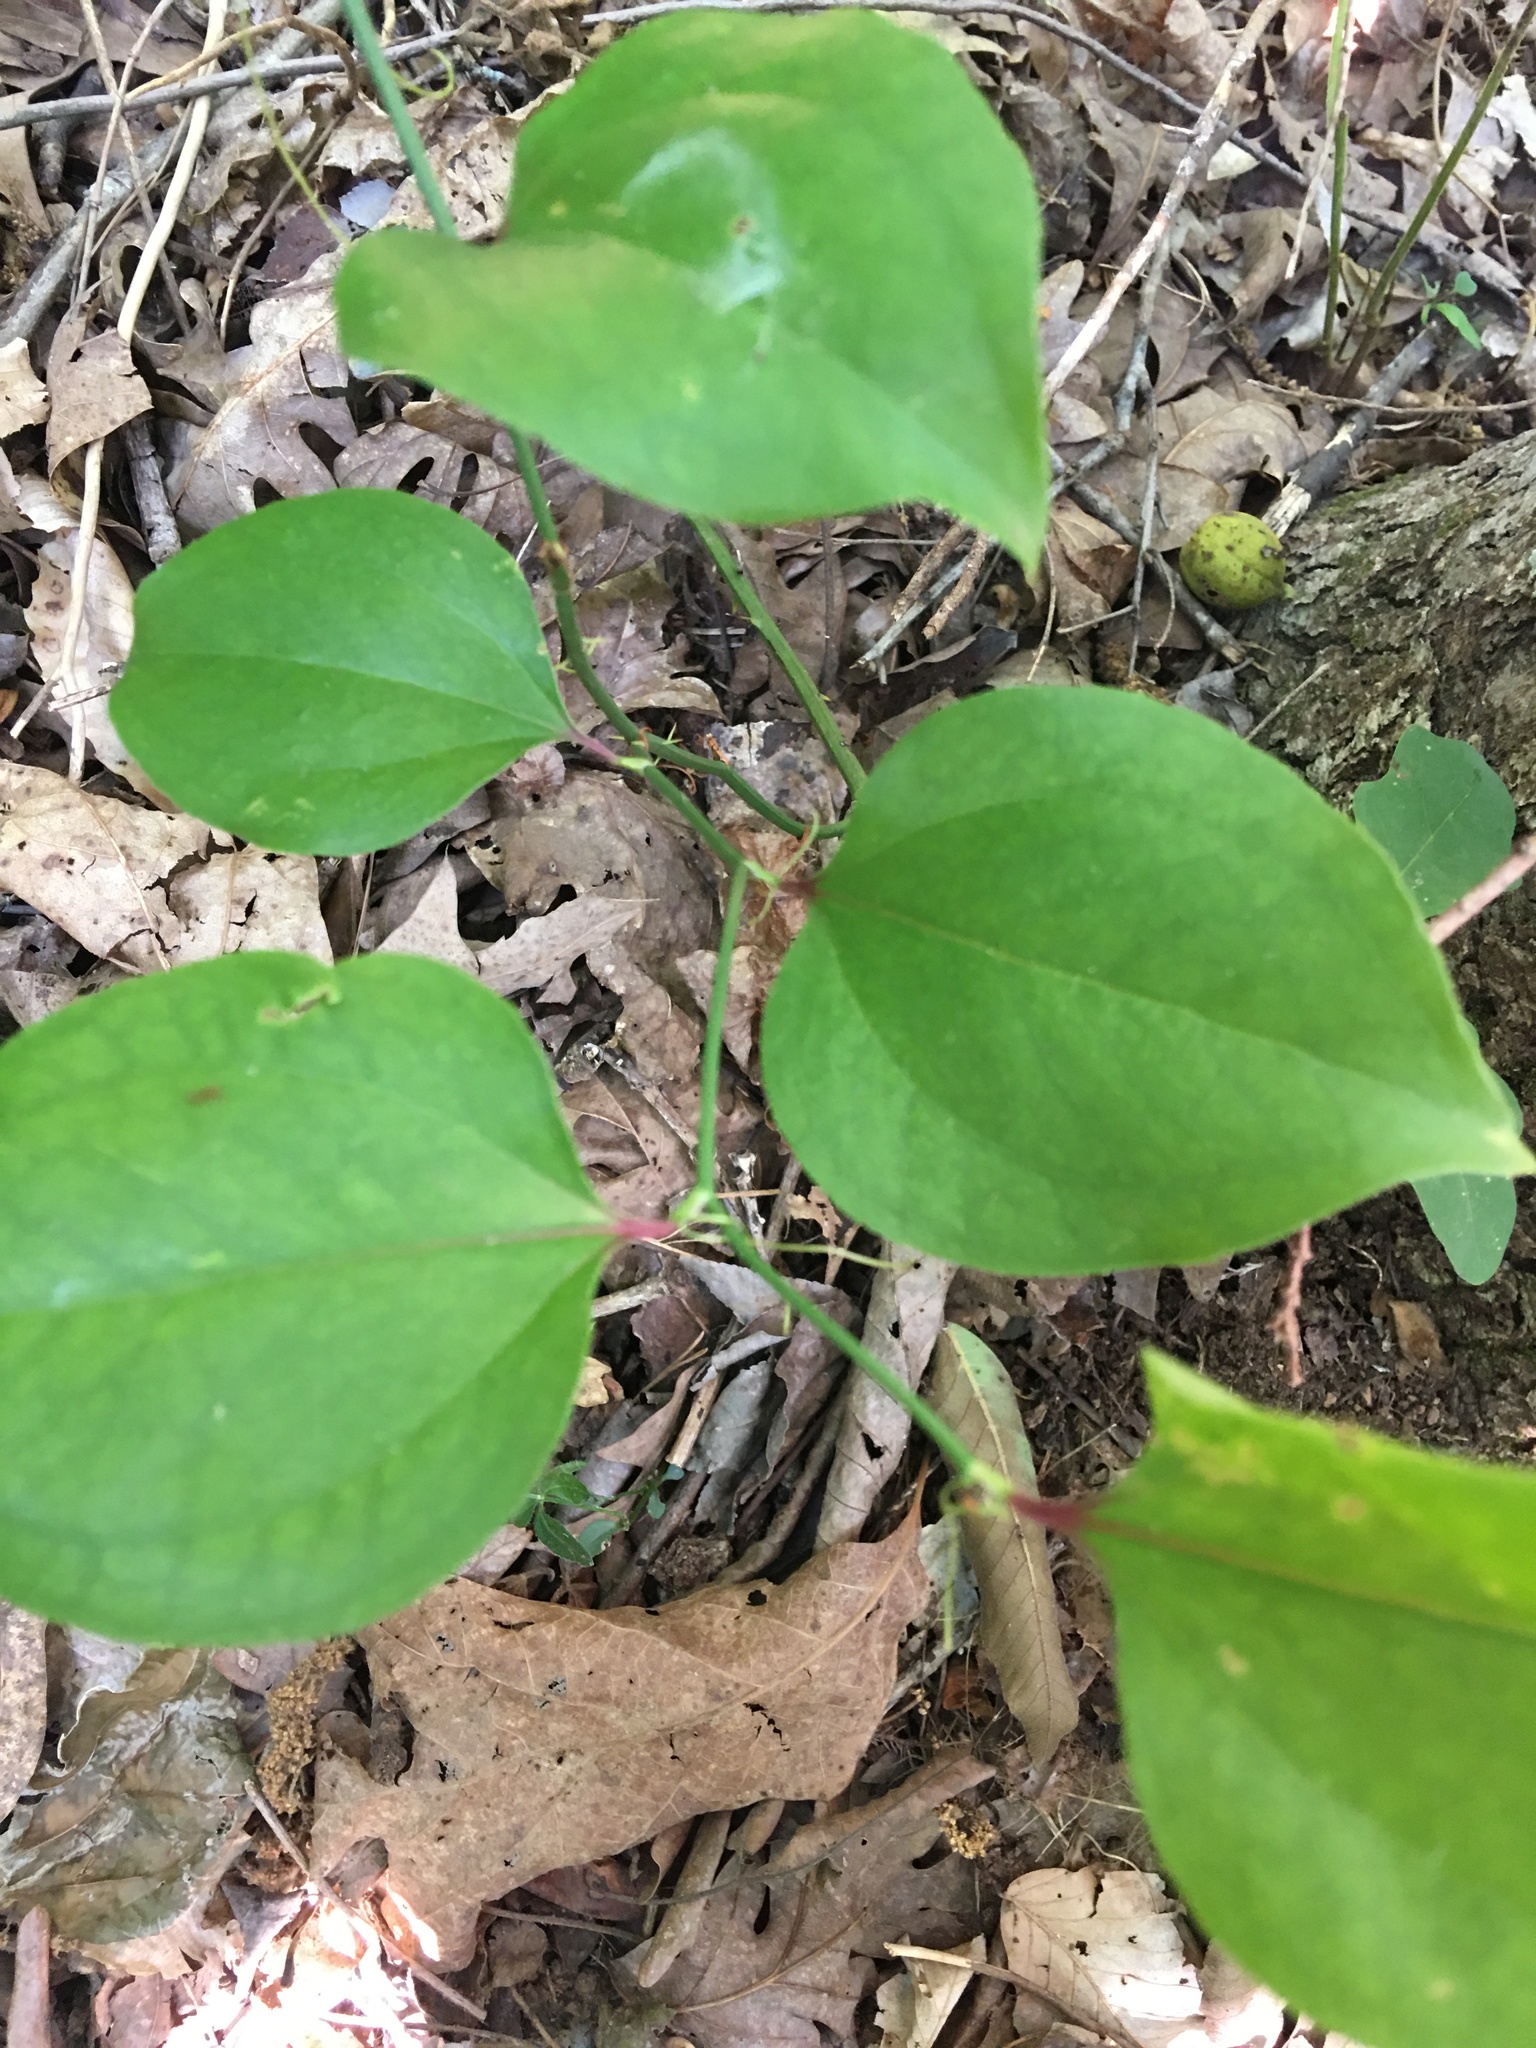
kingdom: Plantae
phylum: Tracheophyta
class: Liliopsida
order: Liliales
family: Smilacaceae
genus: Smilax
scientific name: Smilax rotundifolia
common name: Bullbriar
